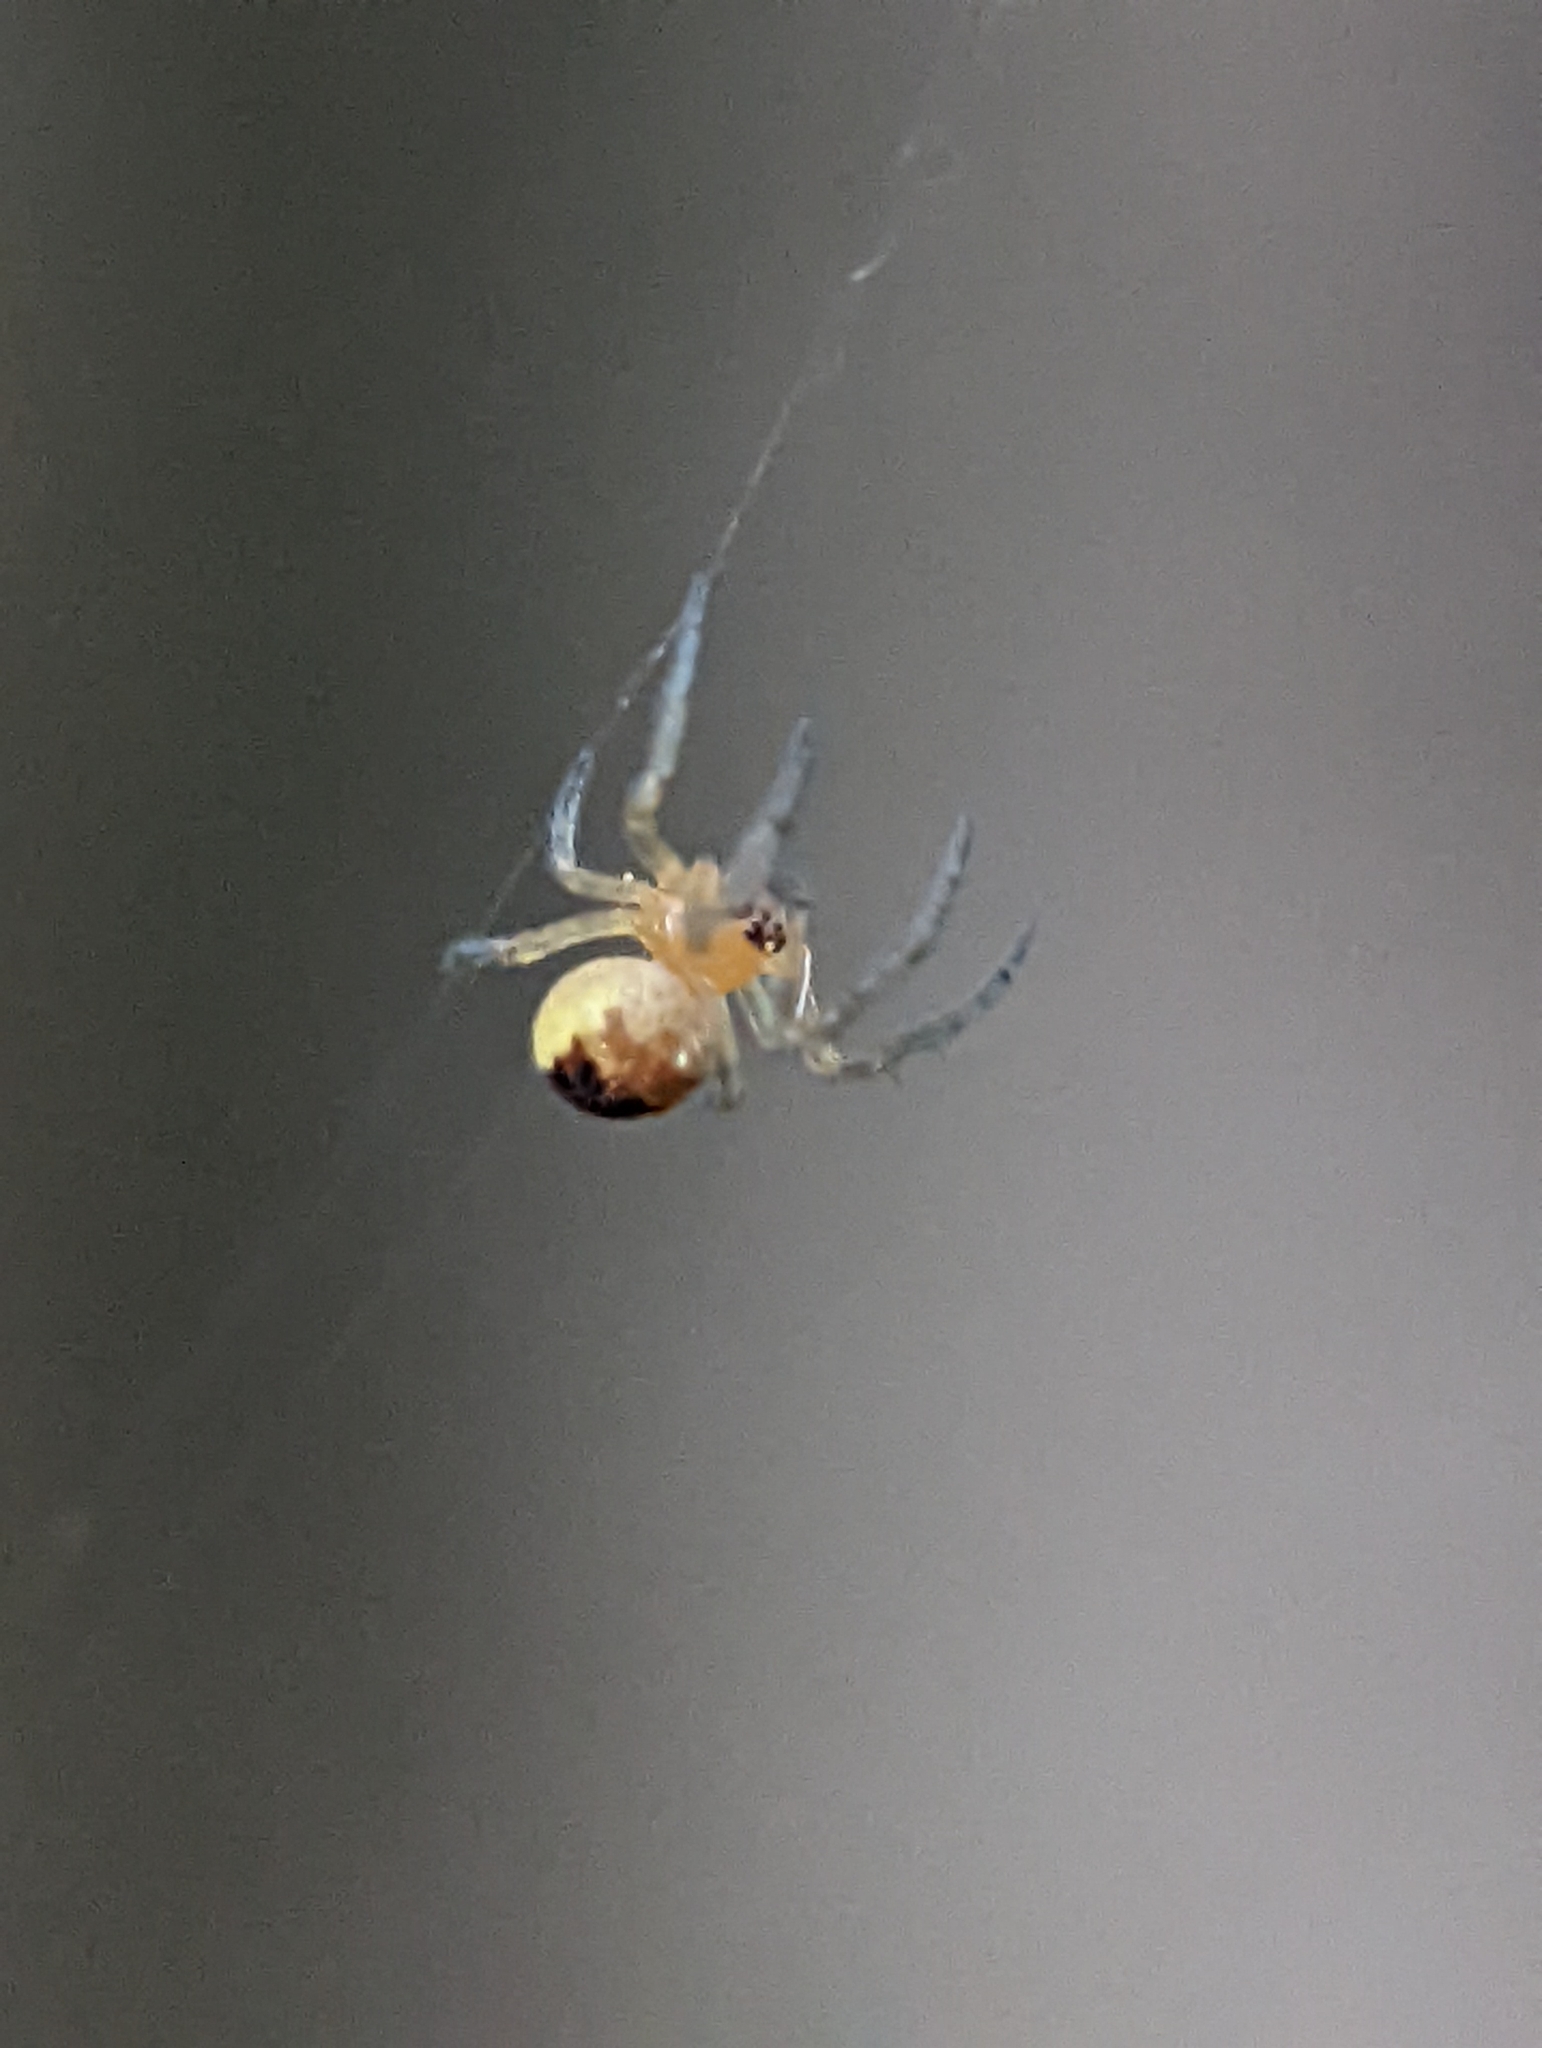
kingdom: Animalia
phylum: Arthropoda
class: Arachnida
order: Araneae
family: Araneidae
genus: Araneus
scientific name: Araneus diadematus
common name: Cross orbweaver
